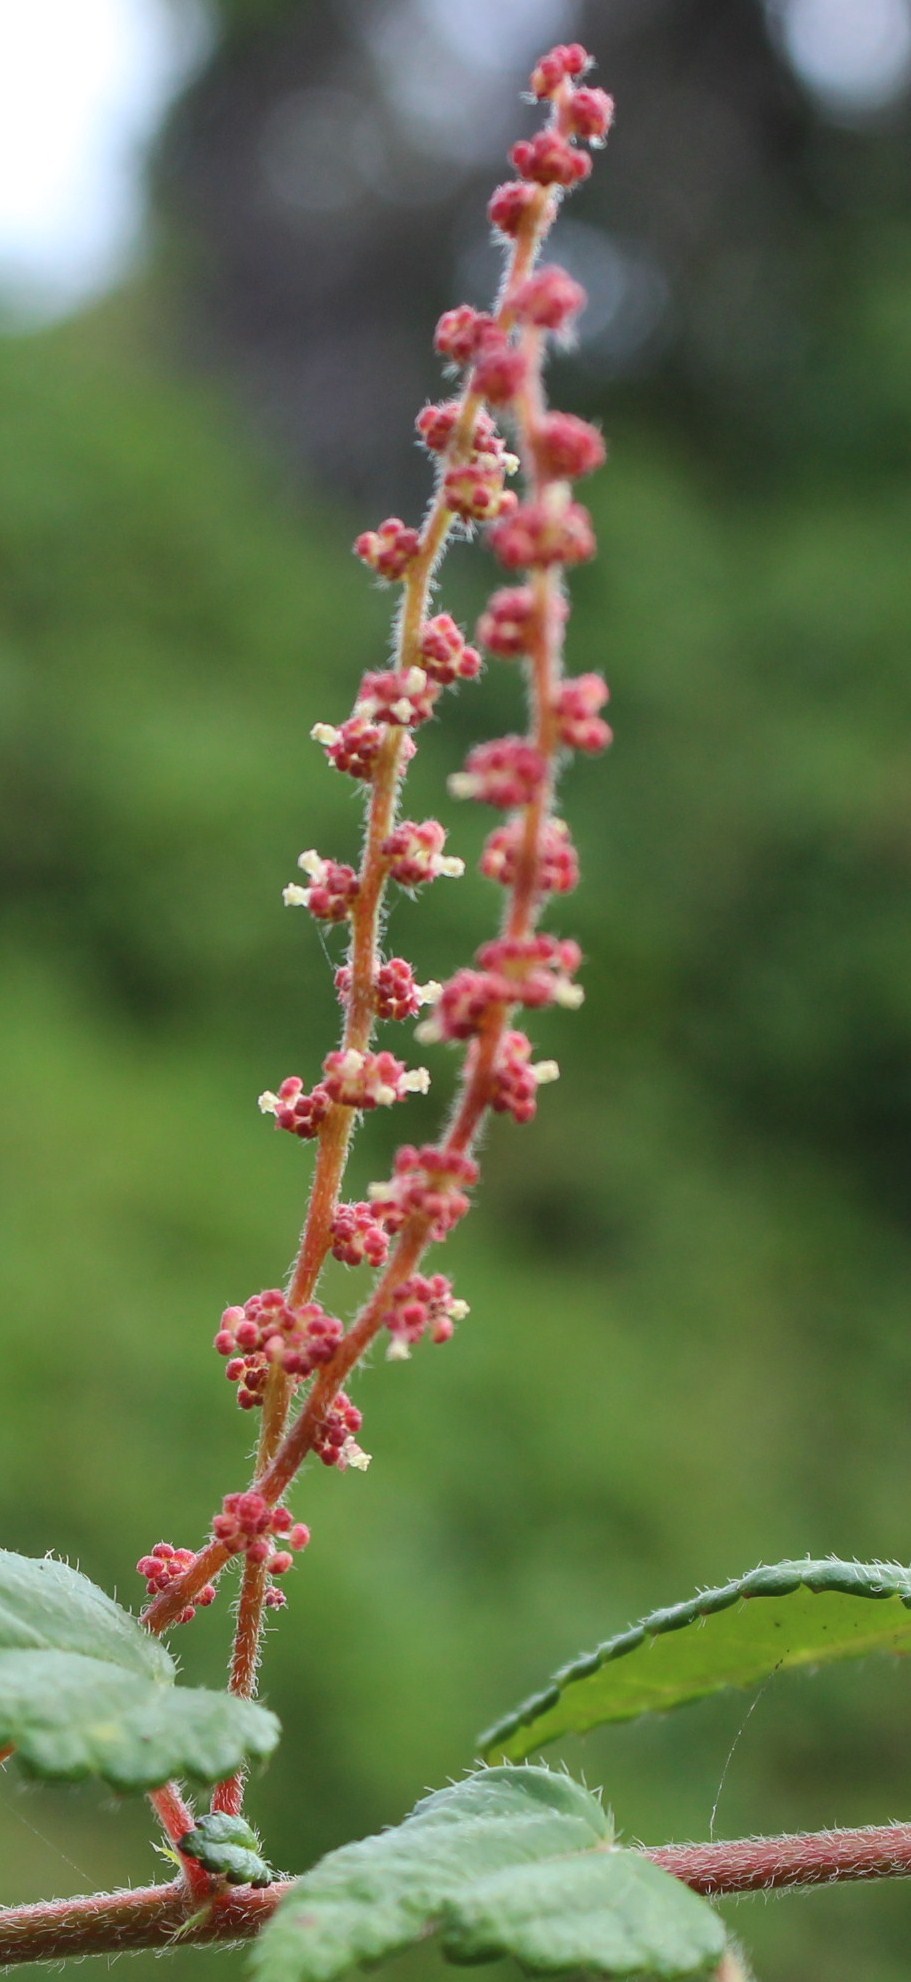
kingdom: Plantae
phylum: Tracheophyta
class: Magnoliopsida
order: Malpighiales
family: Euphorbiaceae
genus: Bernardia
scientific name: Bernardia corensis
